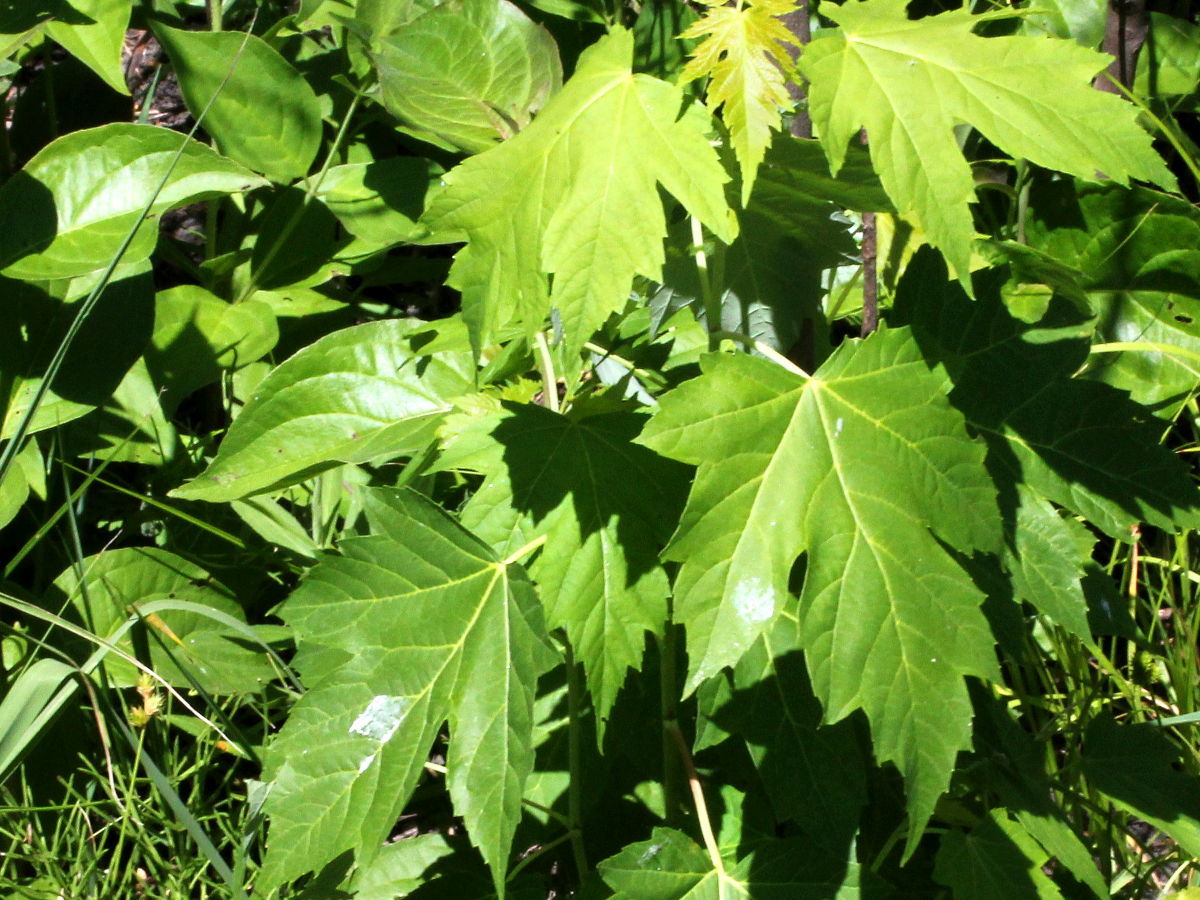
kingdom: Plantae
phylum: Tracheophyta
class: Magnoliopsida
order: Sapindales
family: Sapindaceae
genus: Acer
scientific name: Acer saccharinum
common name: Silver maple
